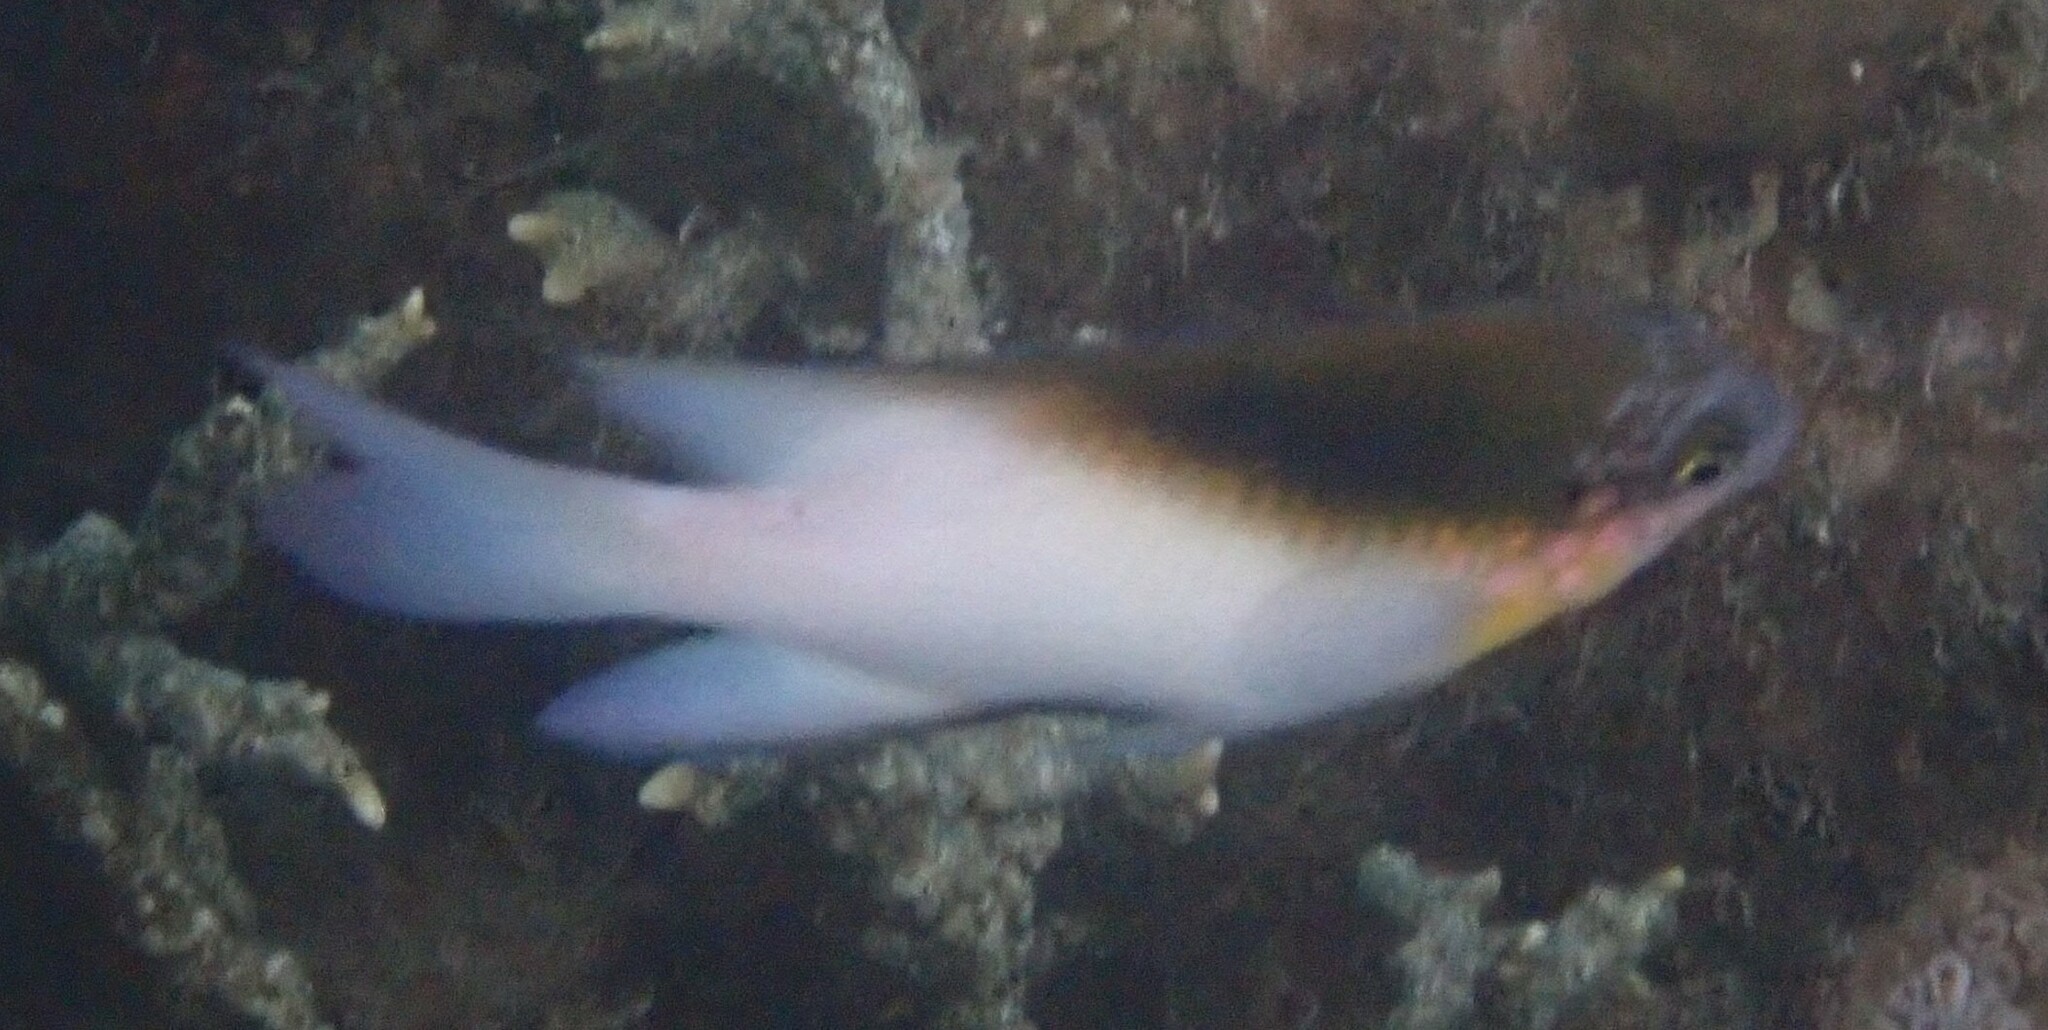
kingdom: Animalia
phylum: Chordata
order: Perciformes
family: Pomacentridae
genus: Dischistodus
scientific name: Dischistodus melanotus
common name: Black-vent damsel
